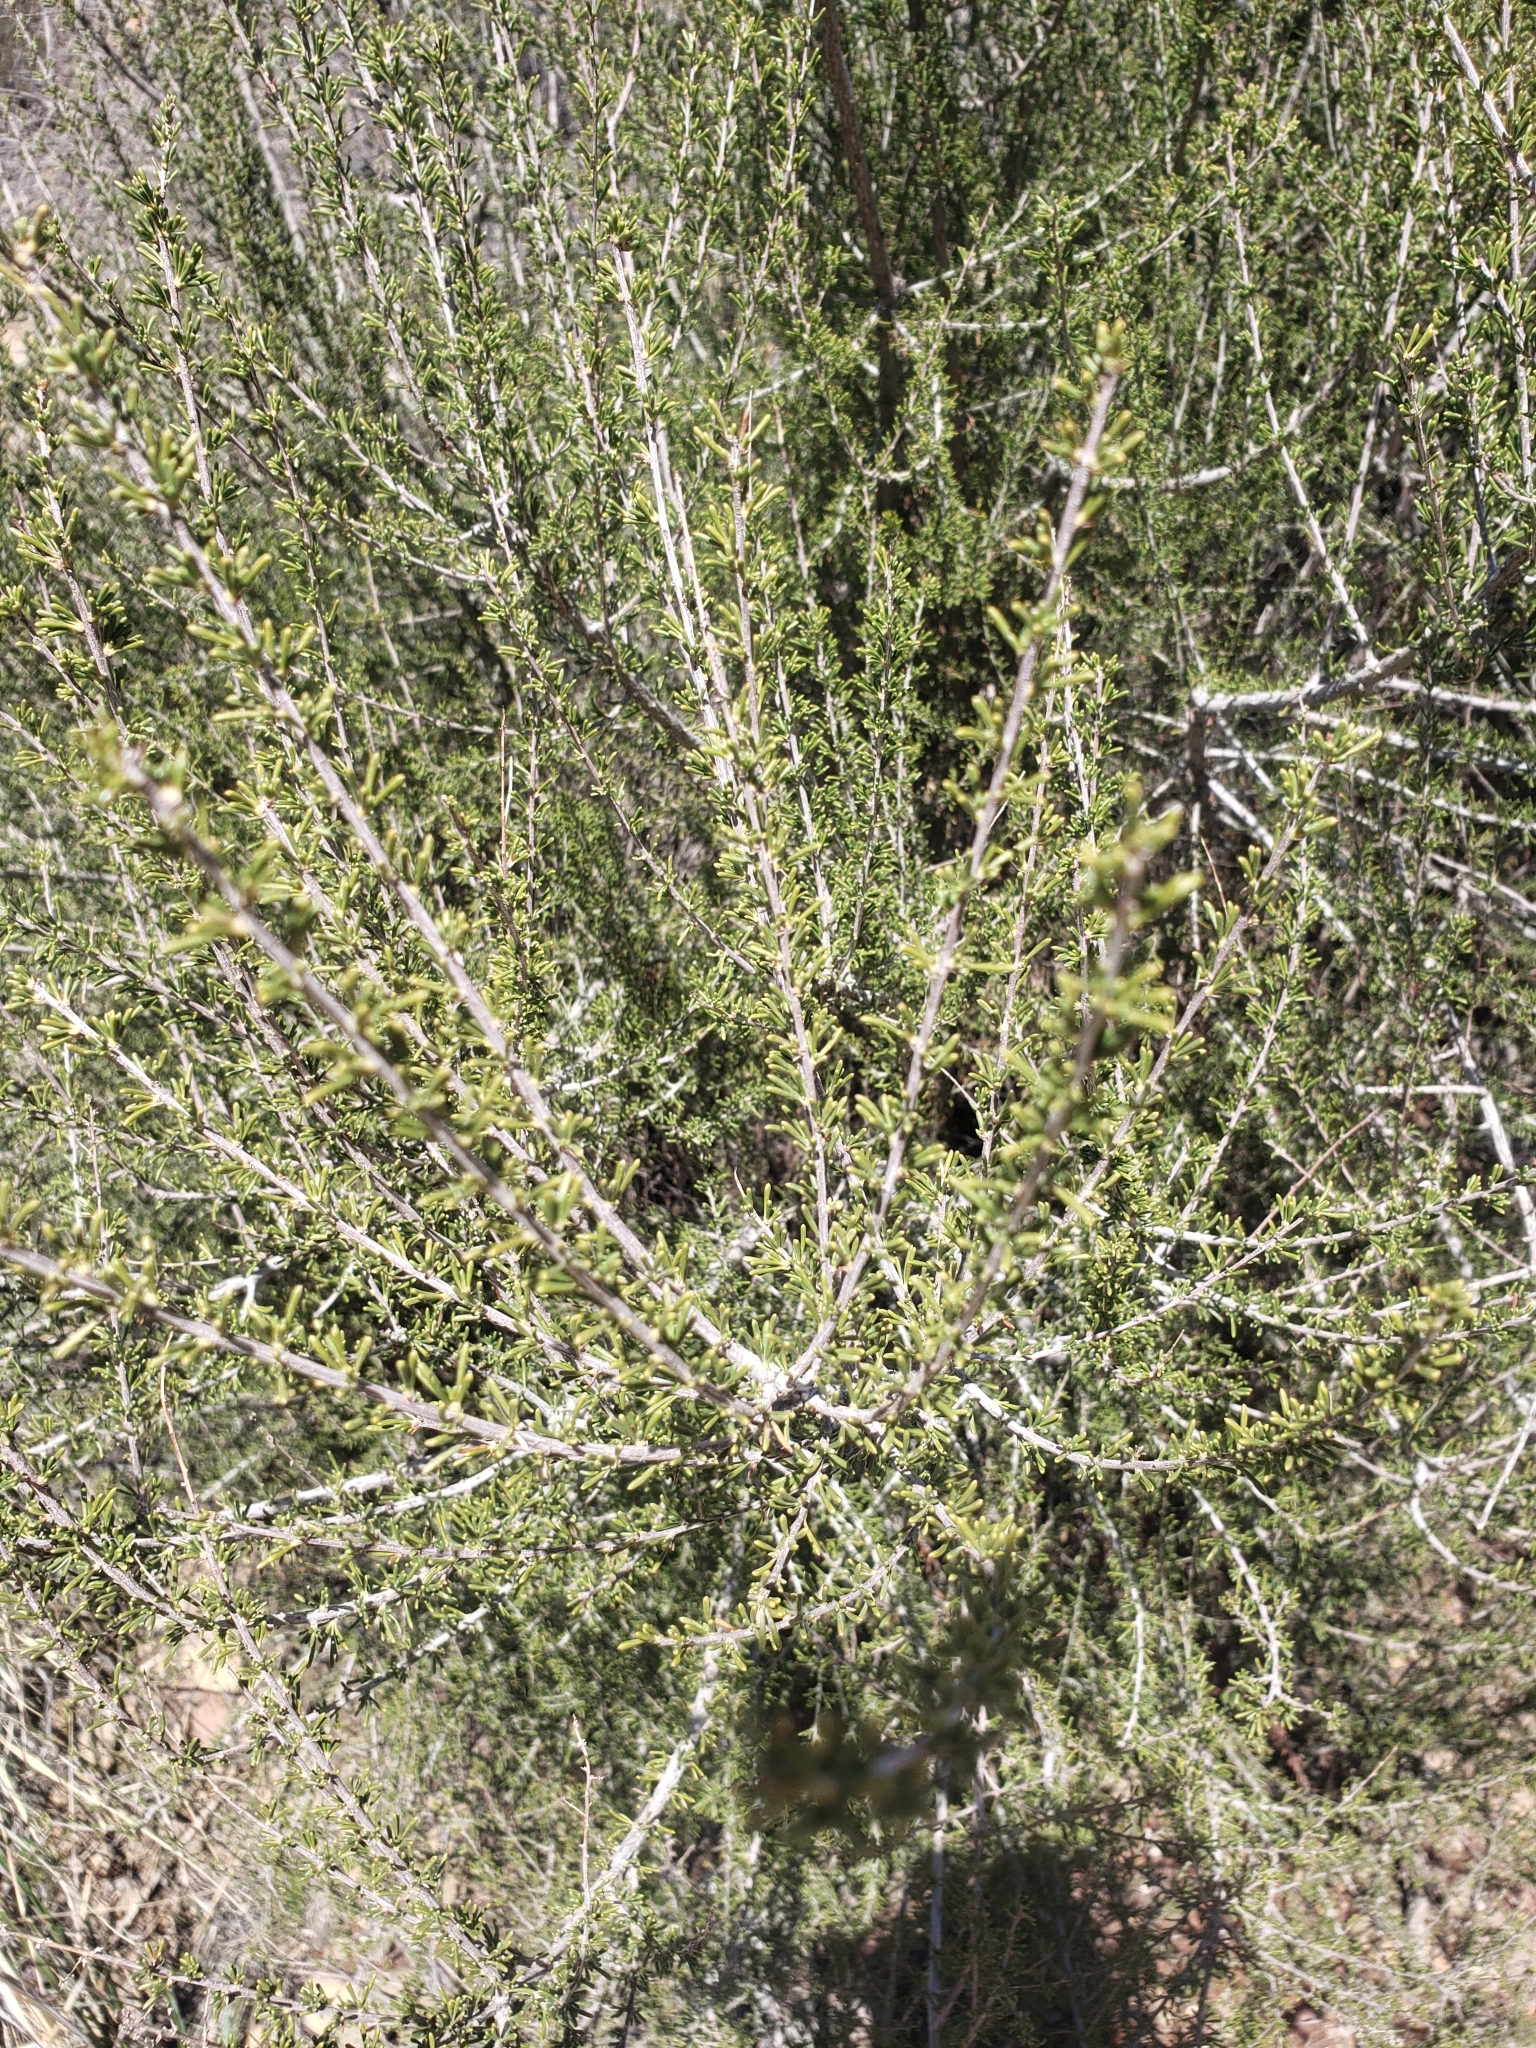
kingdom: Plantae
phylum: Tracheophyta
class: Magnoliopsida
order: Rosales
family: Rosaceae
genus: Adenostoma
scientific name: Adenostoma fasciculatum
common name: Chamise
